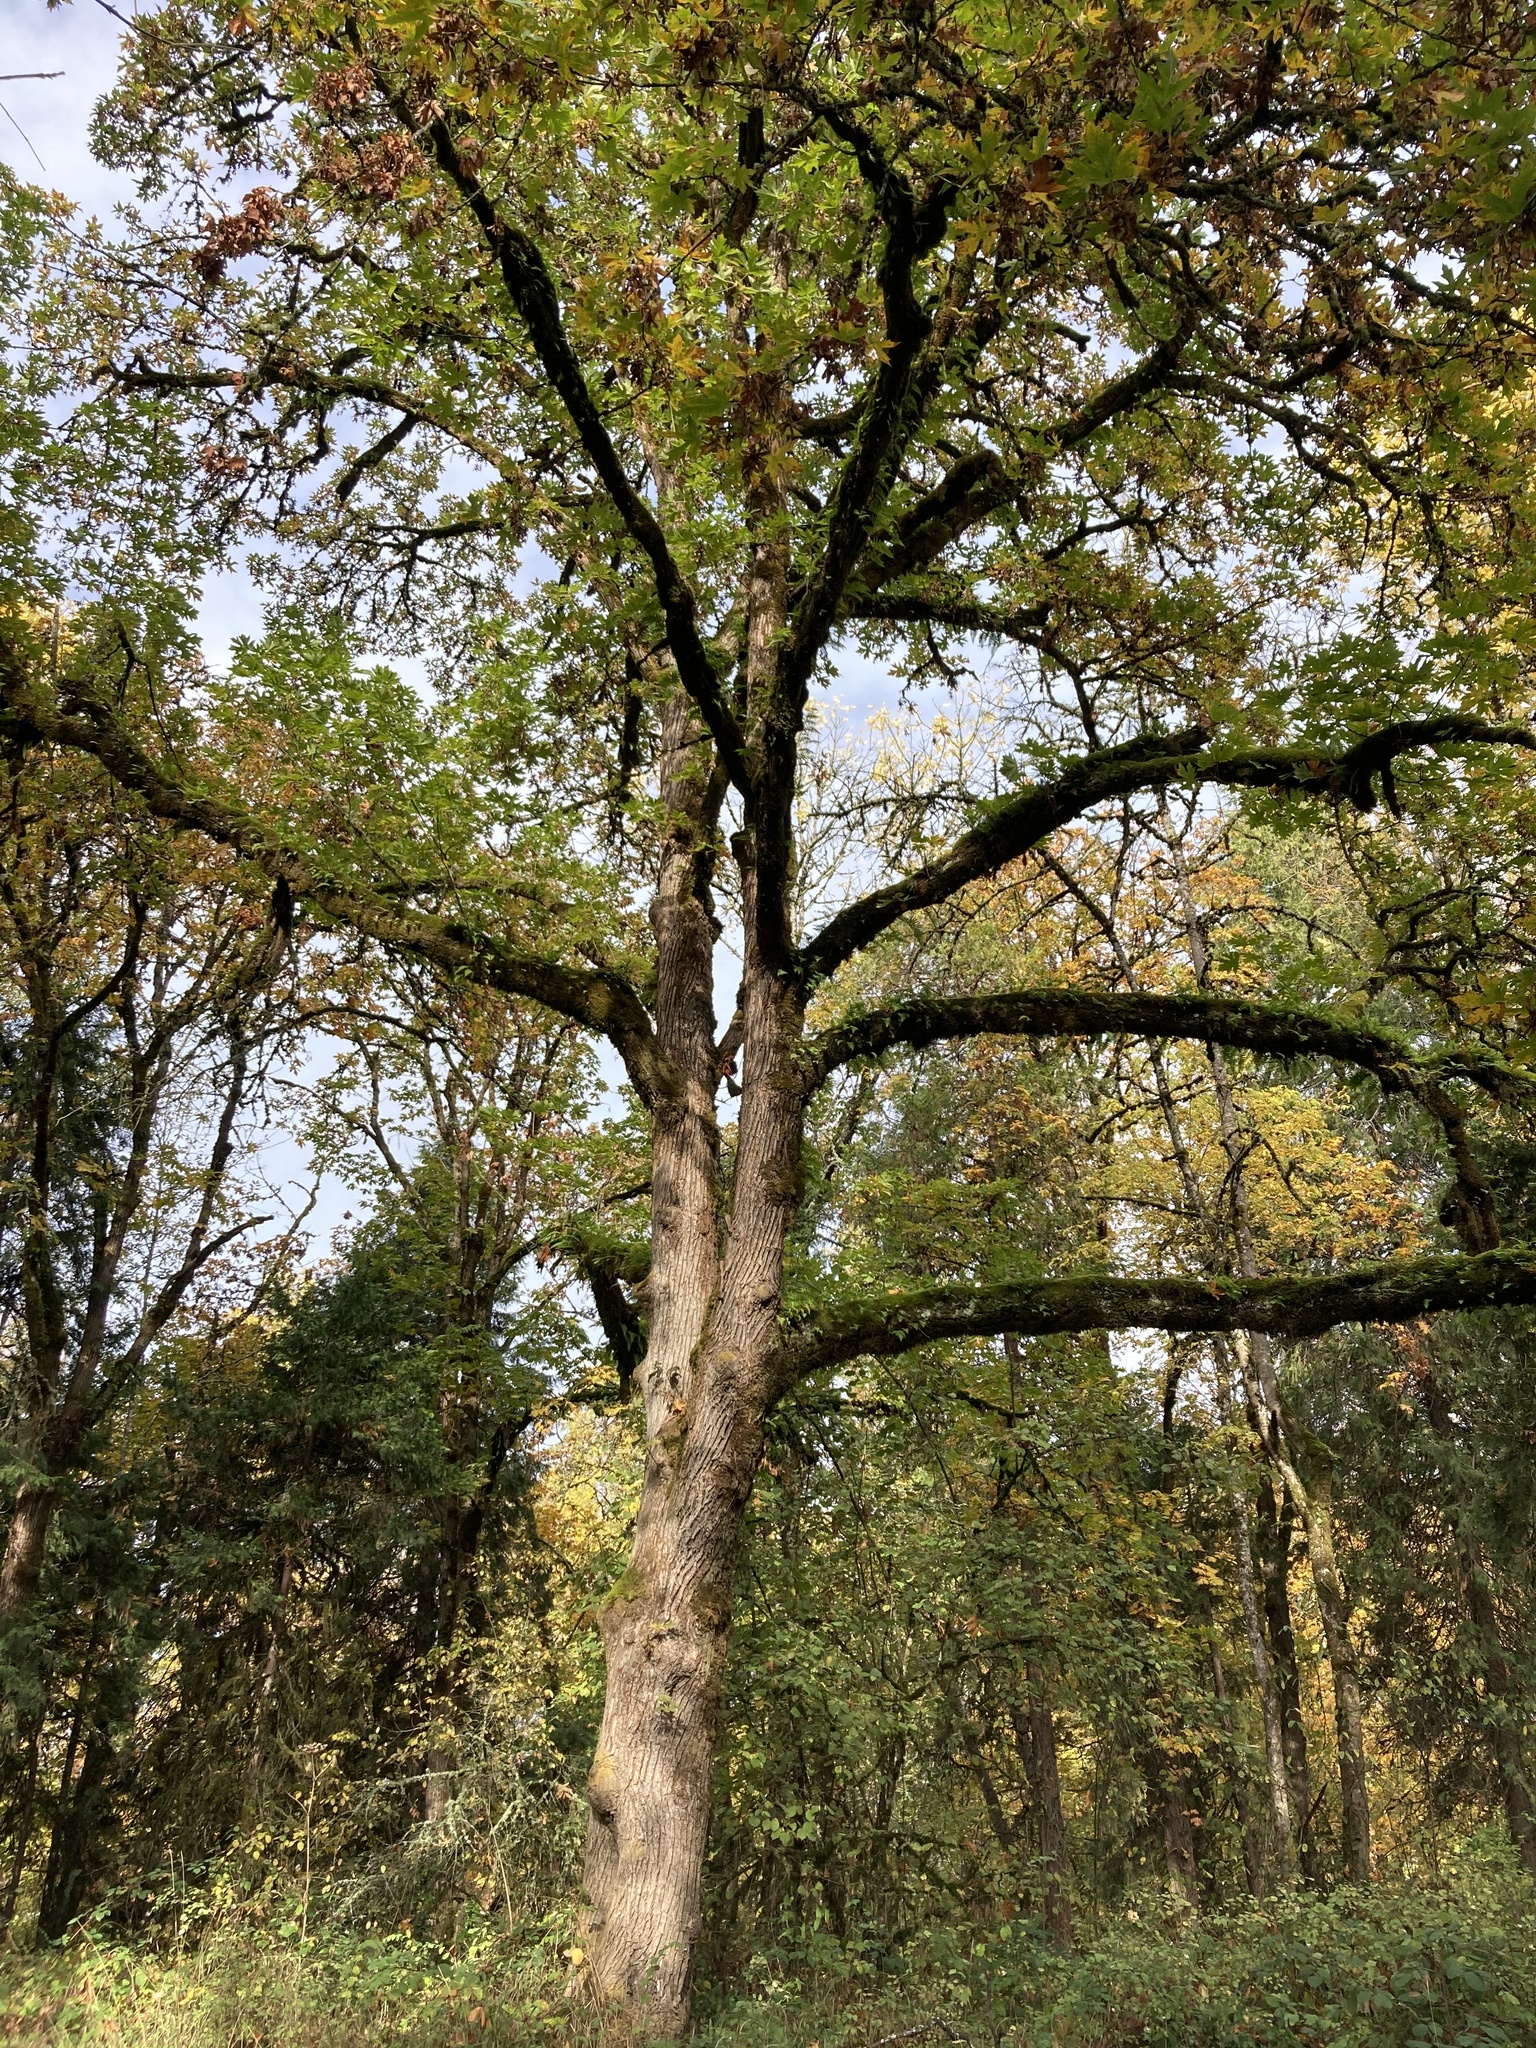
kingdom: Plantae
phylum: Tracheophyta
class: Magnoliopsida
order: Sapindales
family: Sapindaceae
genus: Acer
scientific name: Acer macrophyllum
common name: Oregon maple
